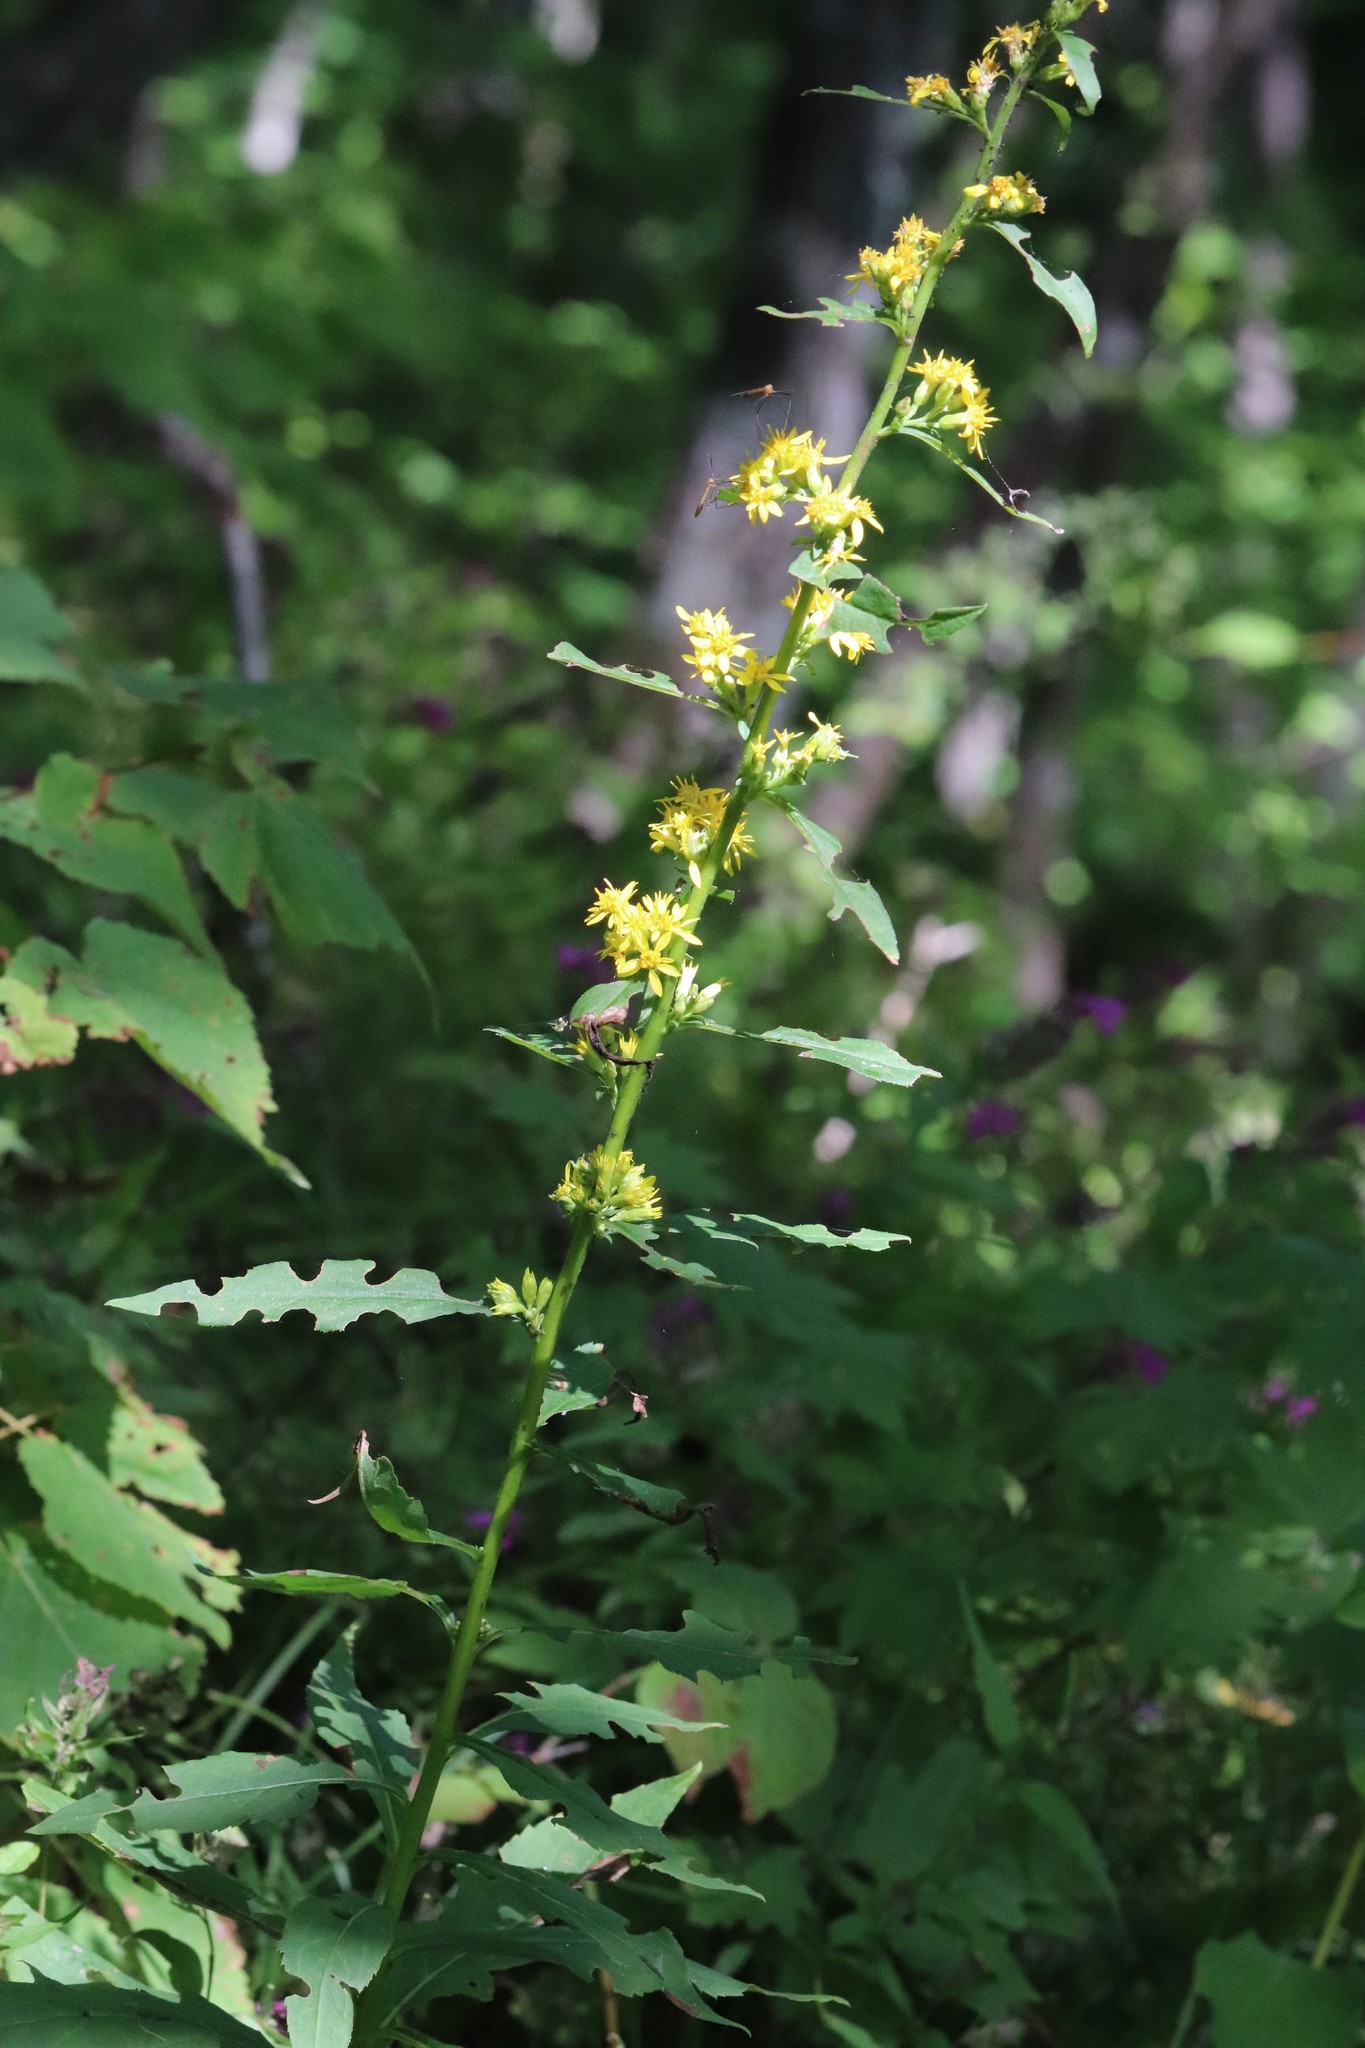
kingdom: Plantae
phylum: Tracheophyta
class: Magnoliopsida
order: Asterales
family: Asteraceae
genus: Solidago
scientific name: Solidago decurrens
